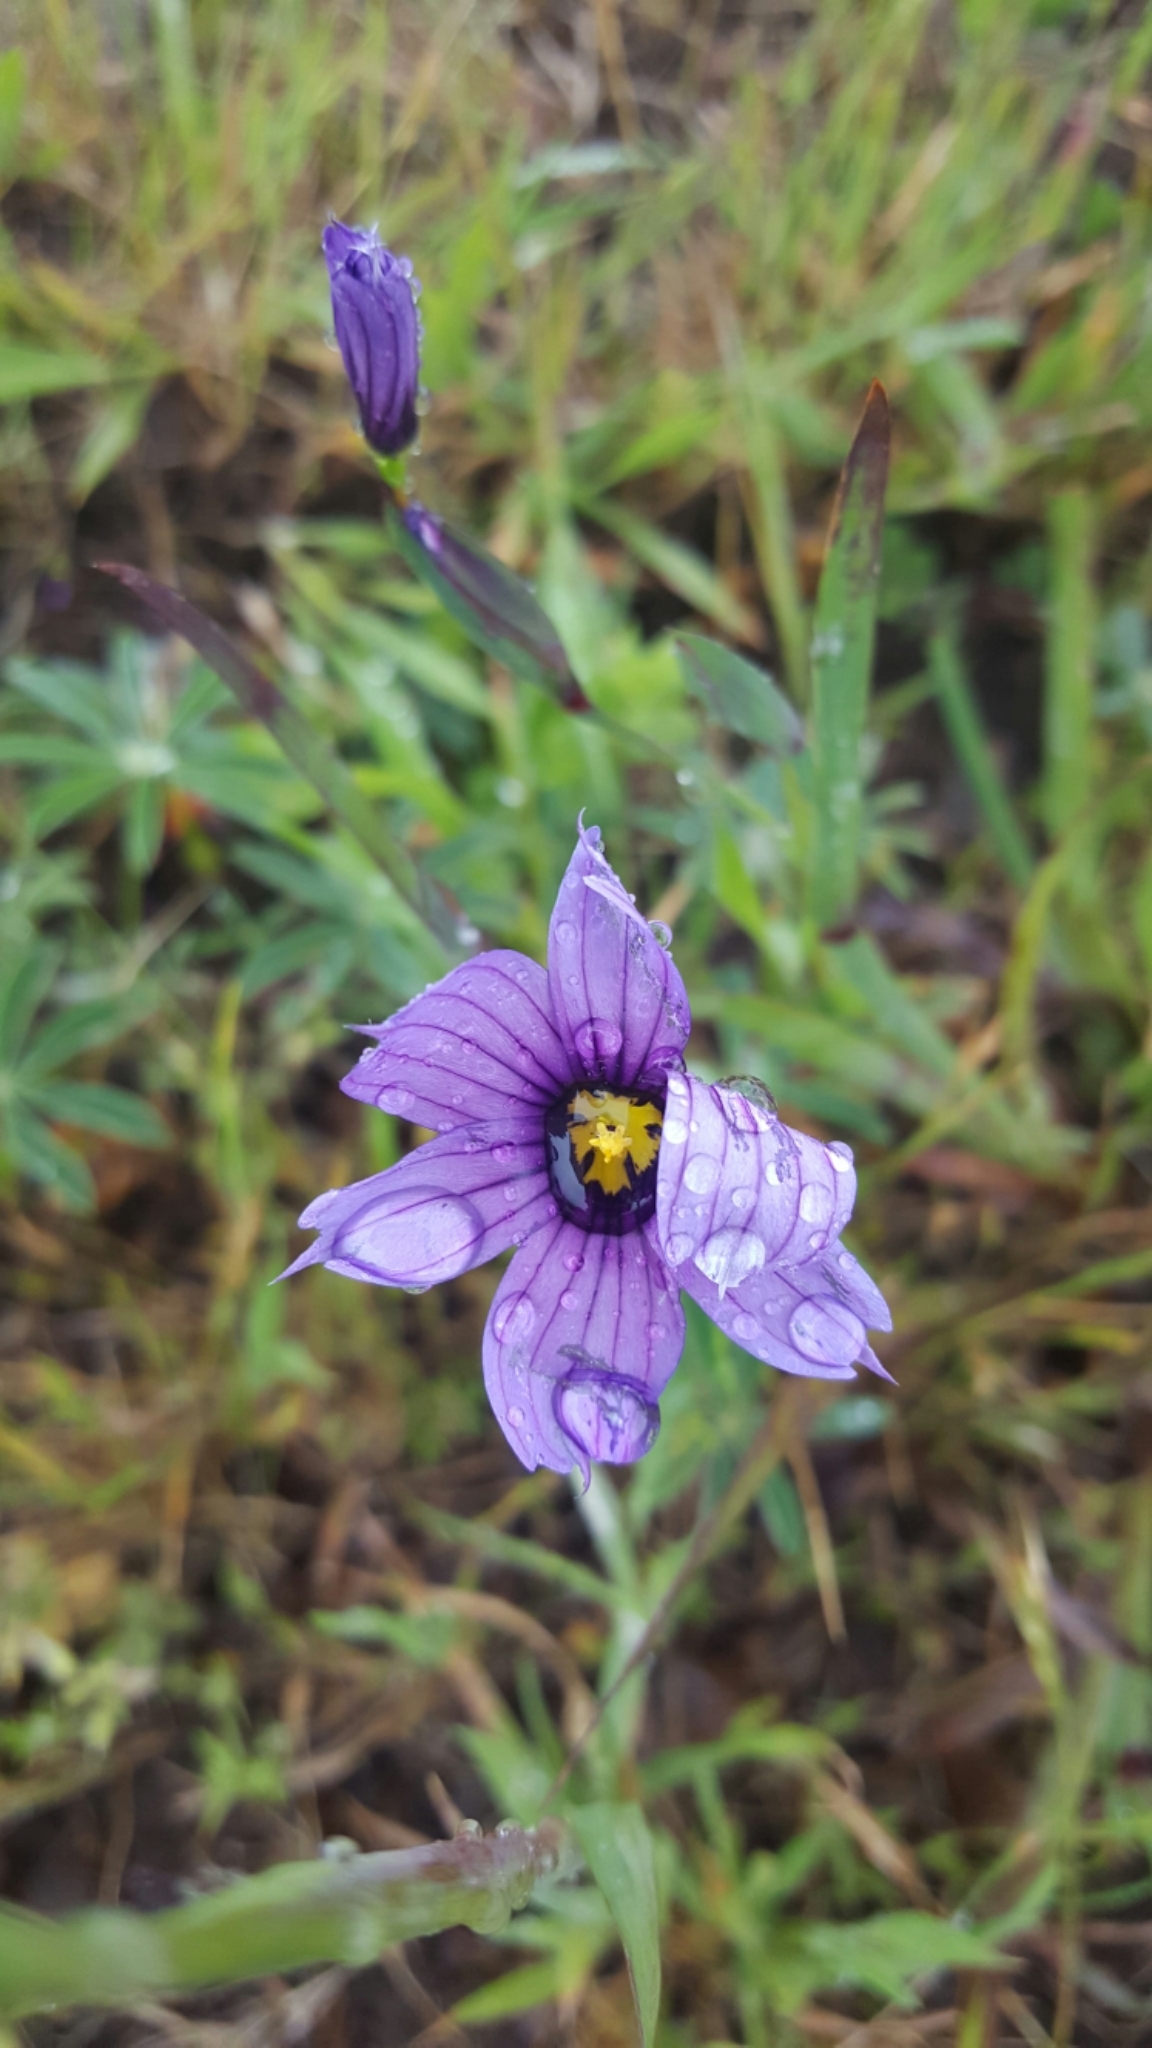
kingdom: Plantae
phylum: Tracheophyta
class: Liliopsida
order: Asparagales
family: Iridaceae
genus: Sisyrinchium
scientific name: Sisyrinchium bellum
